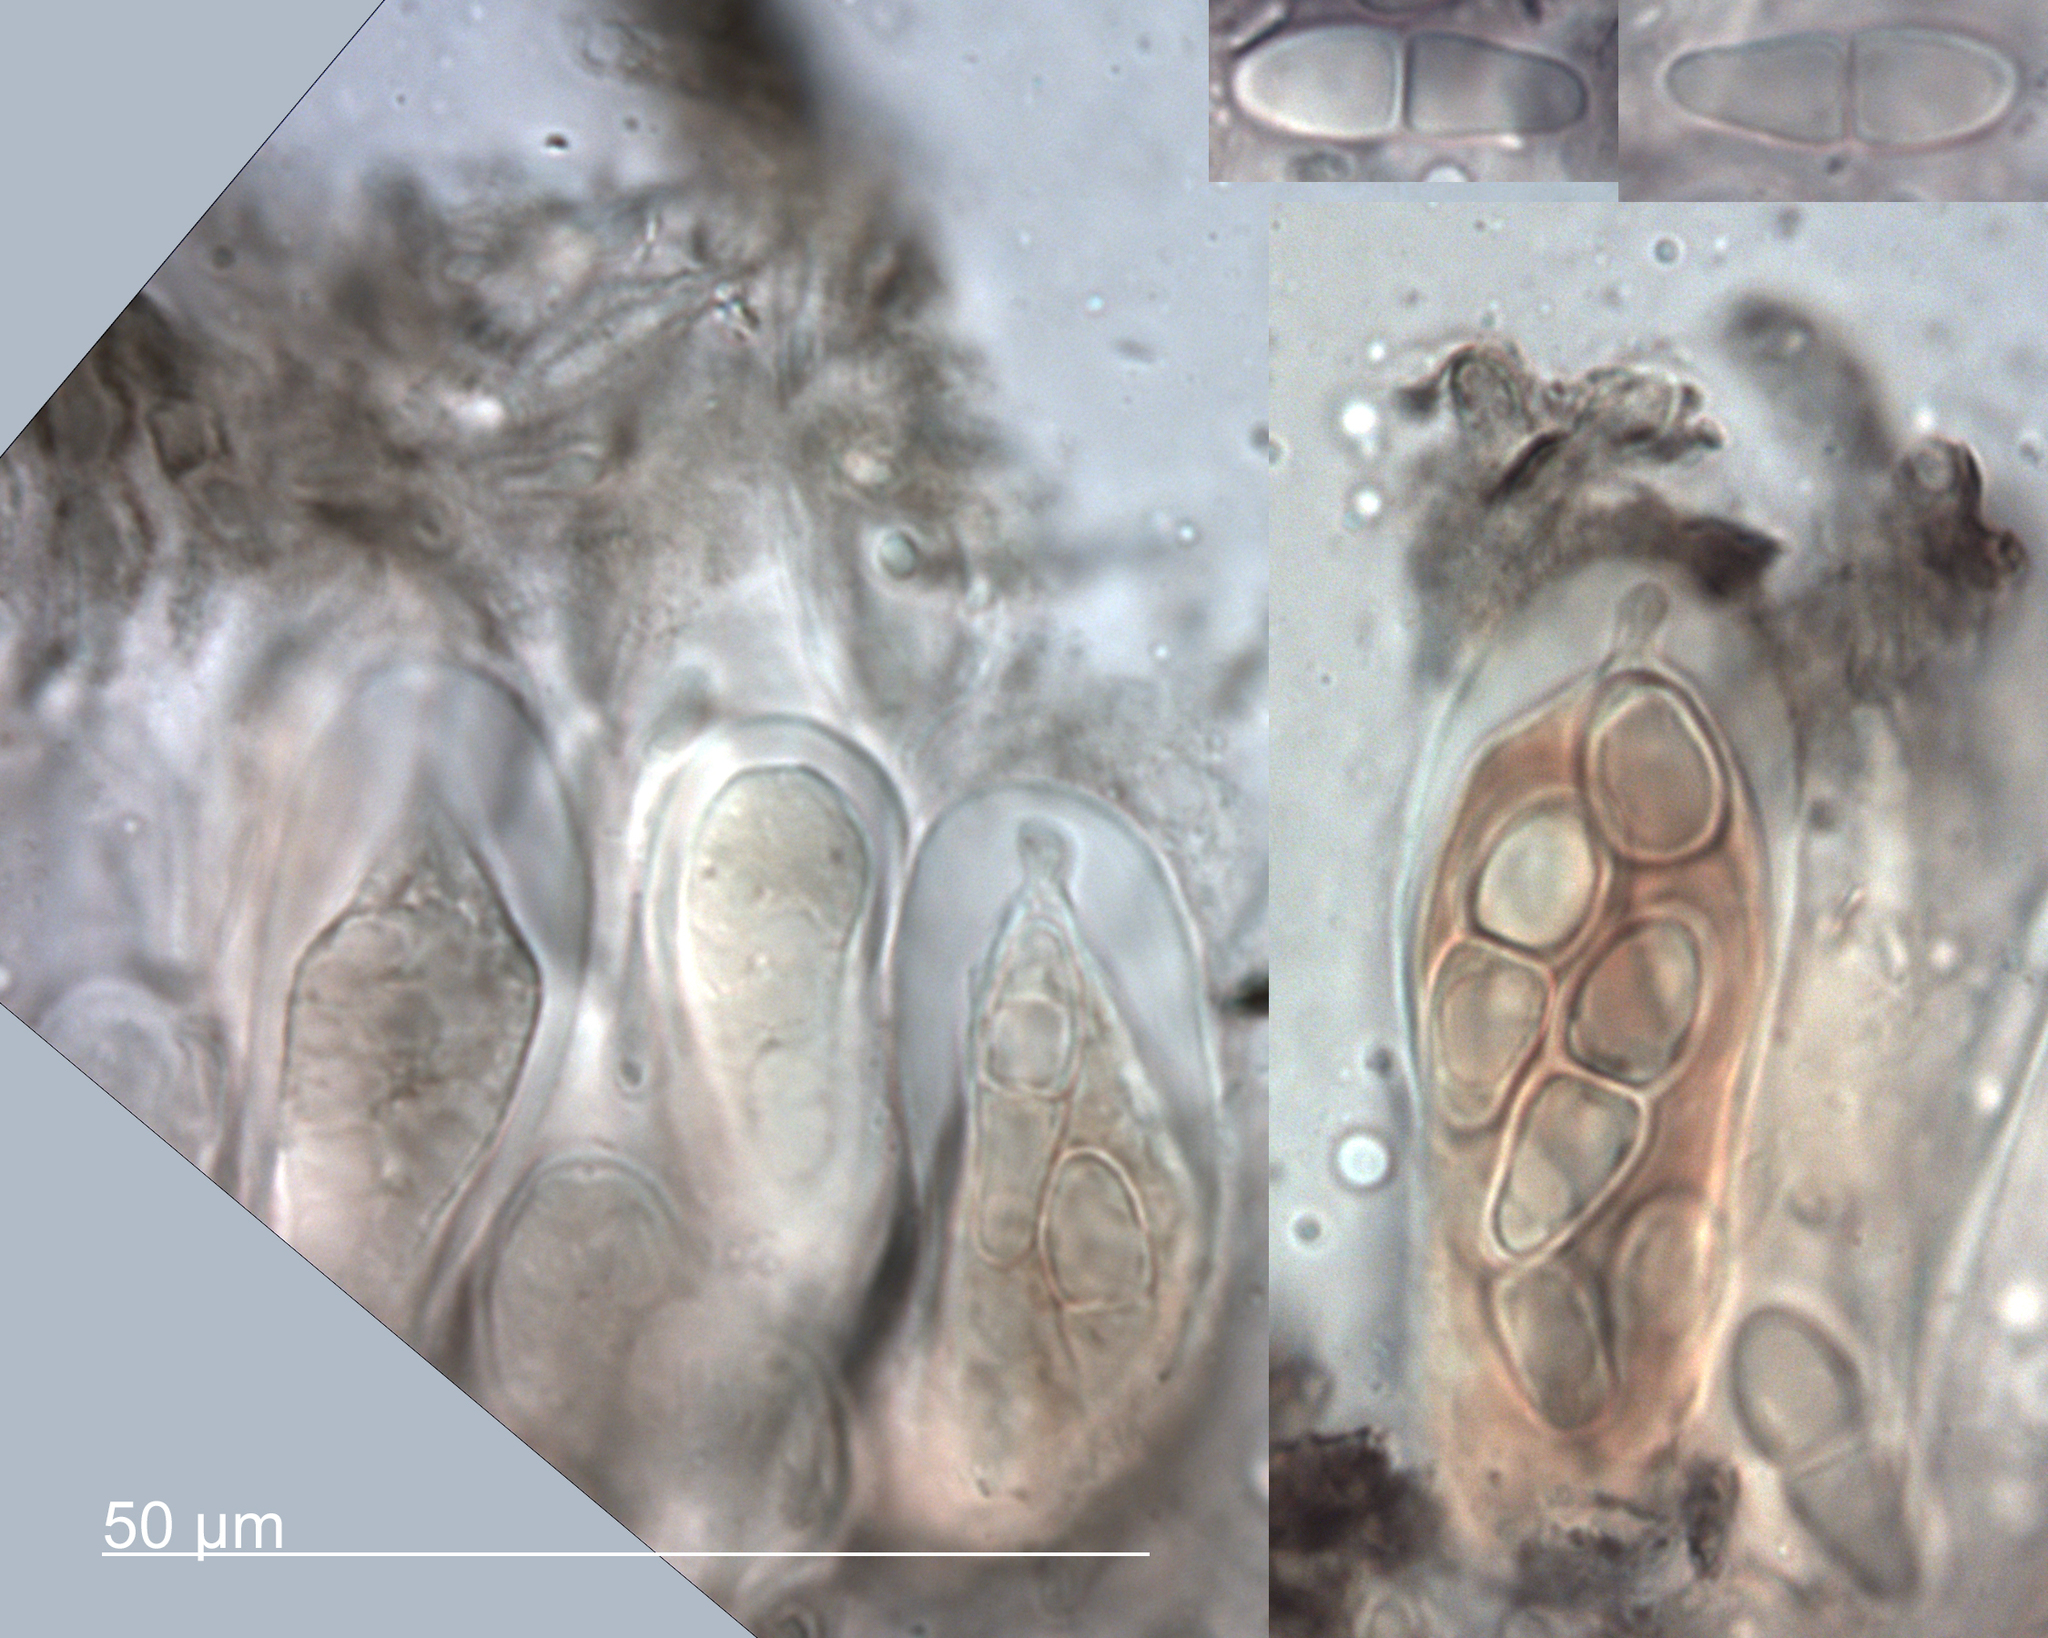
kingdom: Fungi
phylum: Ascomycota
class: Dothideomycetes
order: Asterinales
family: Asterinaceae
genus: Placosoma
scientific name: Placosoma nothopanacis
